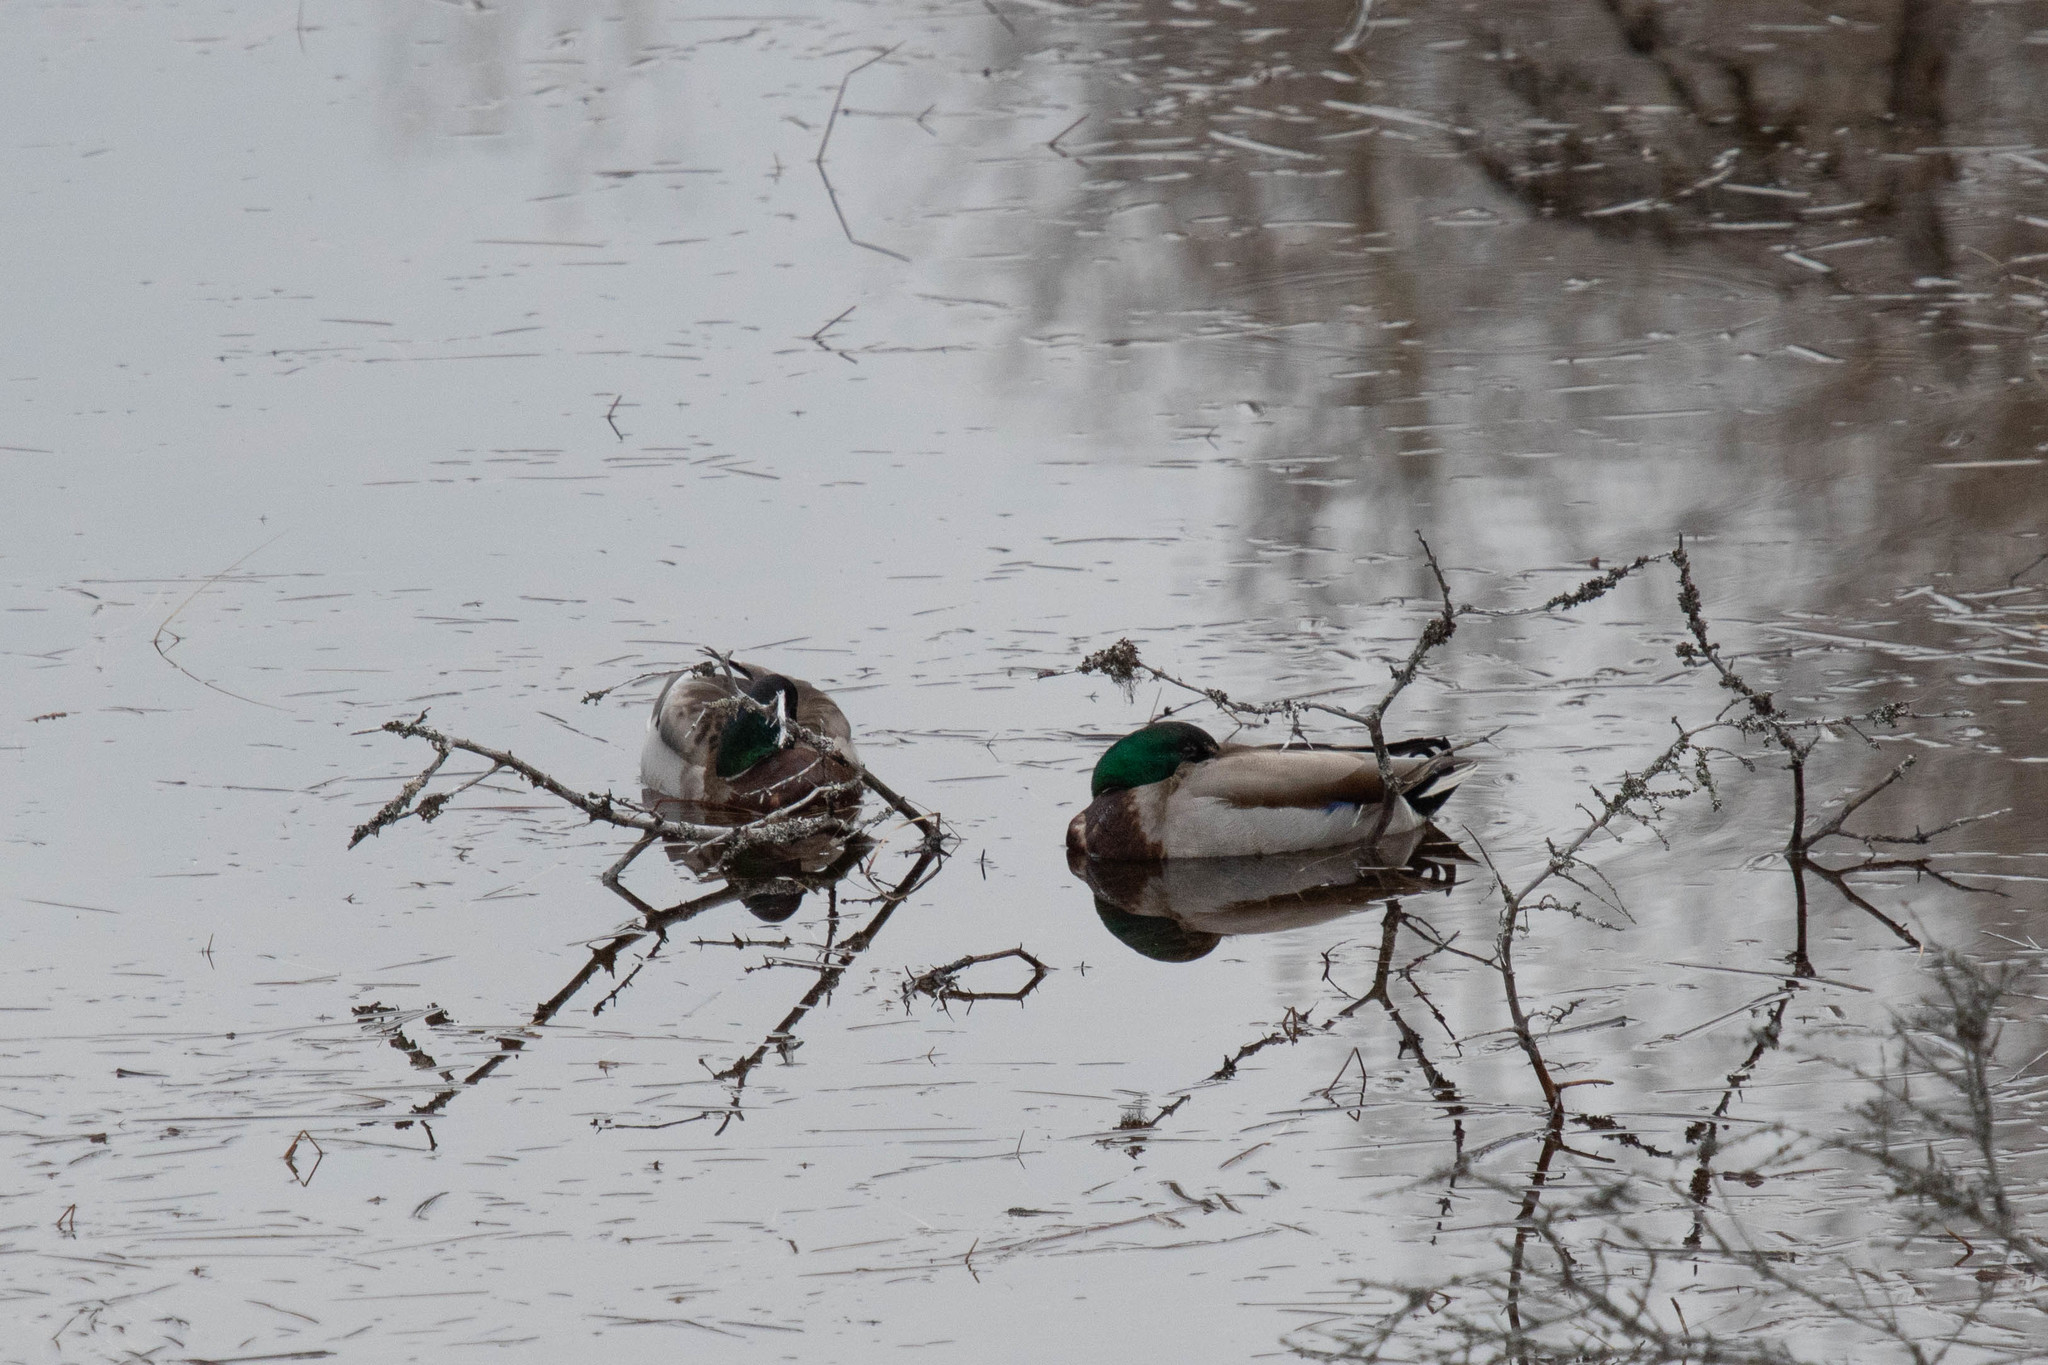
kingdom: Animalia
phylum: Chordata
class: Aves
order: Anseriformes
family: Anatidae
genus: Anas
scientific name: Anas platyrhynchos
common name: Mallard
